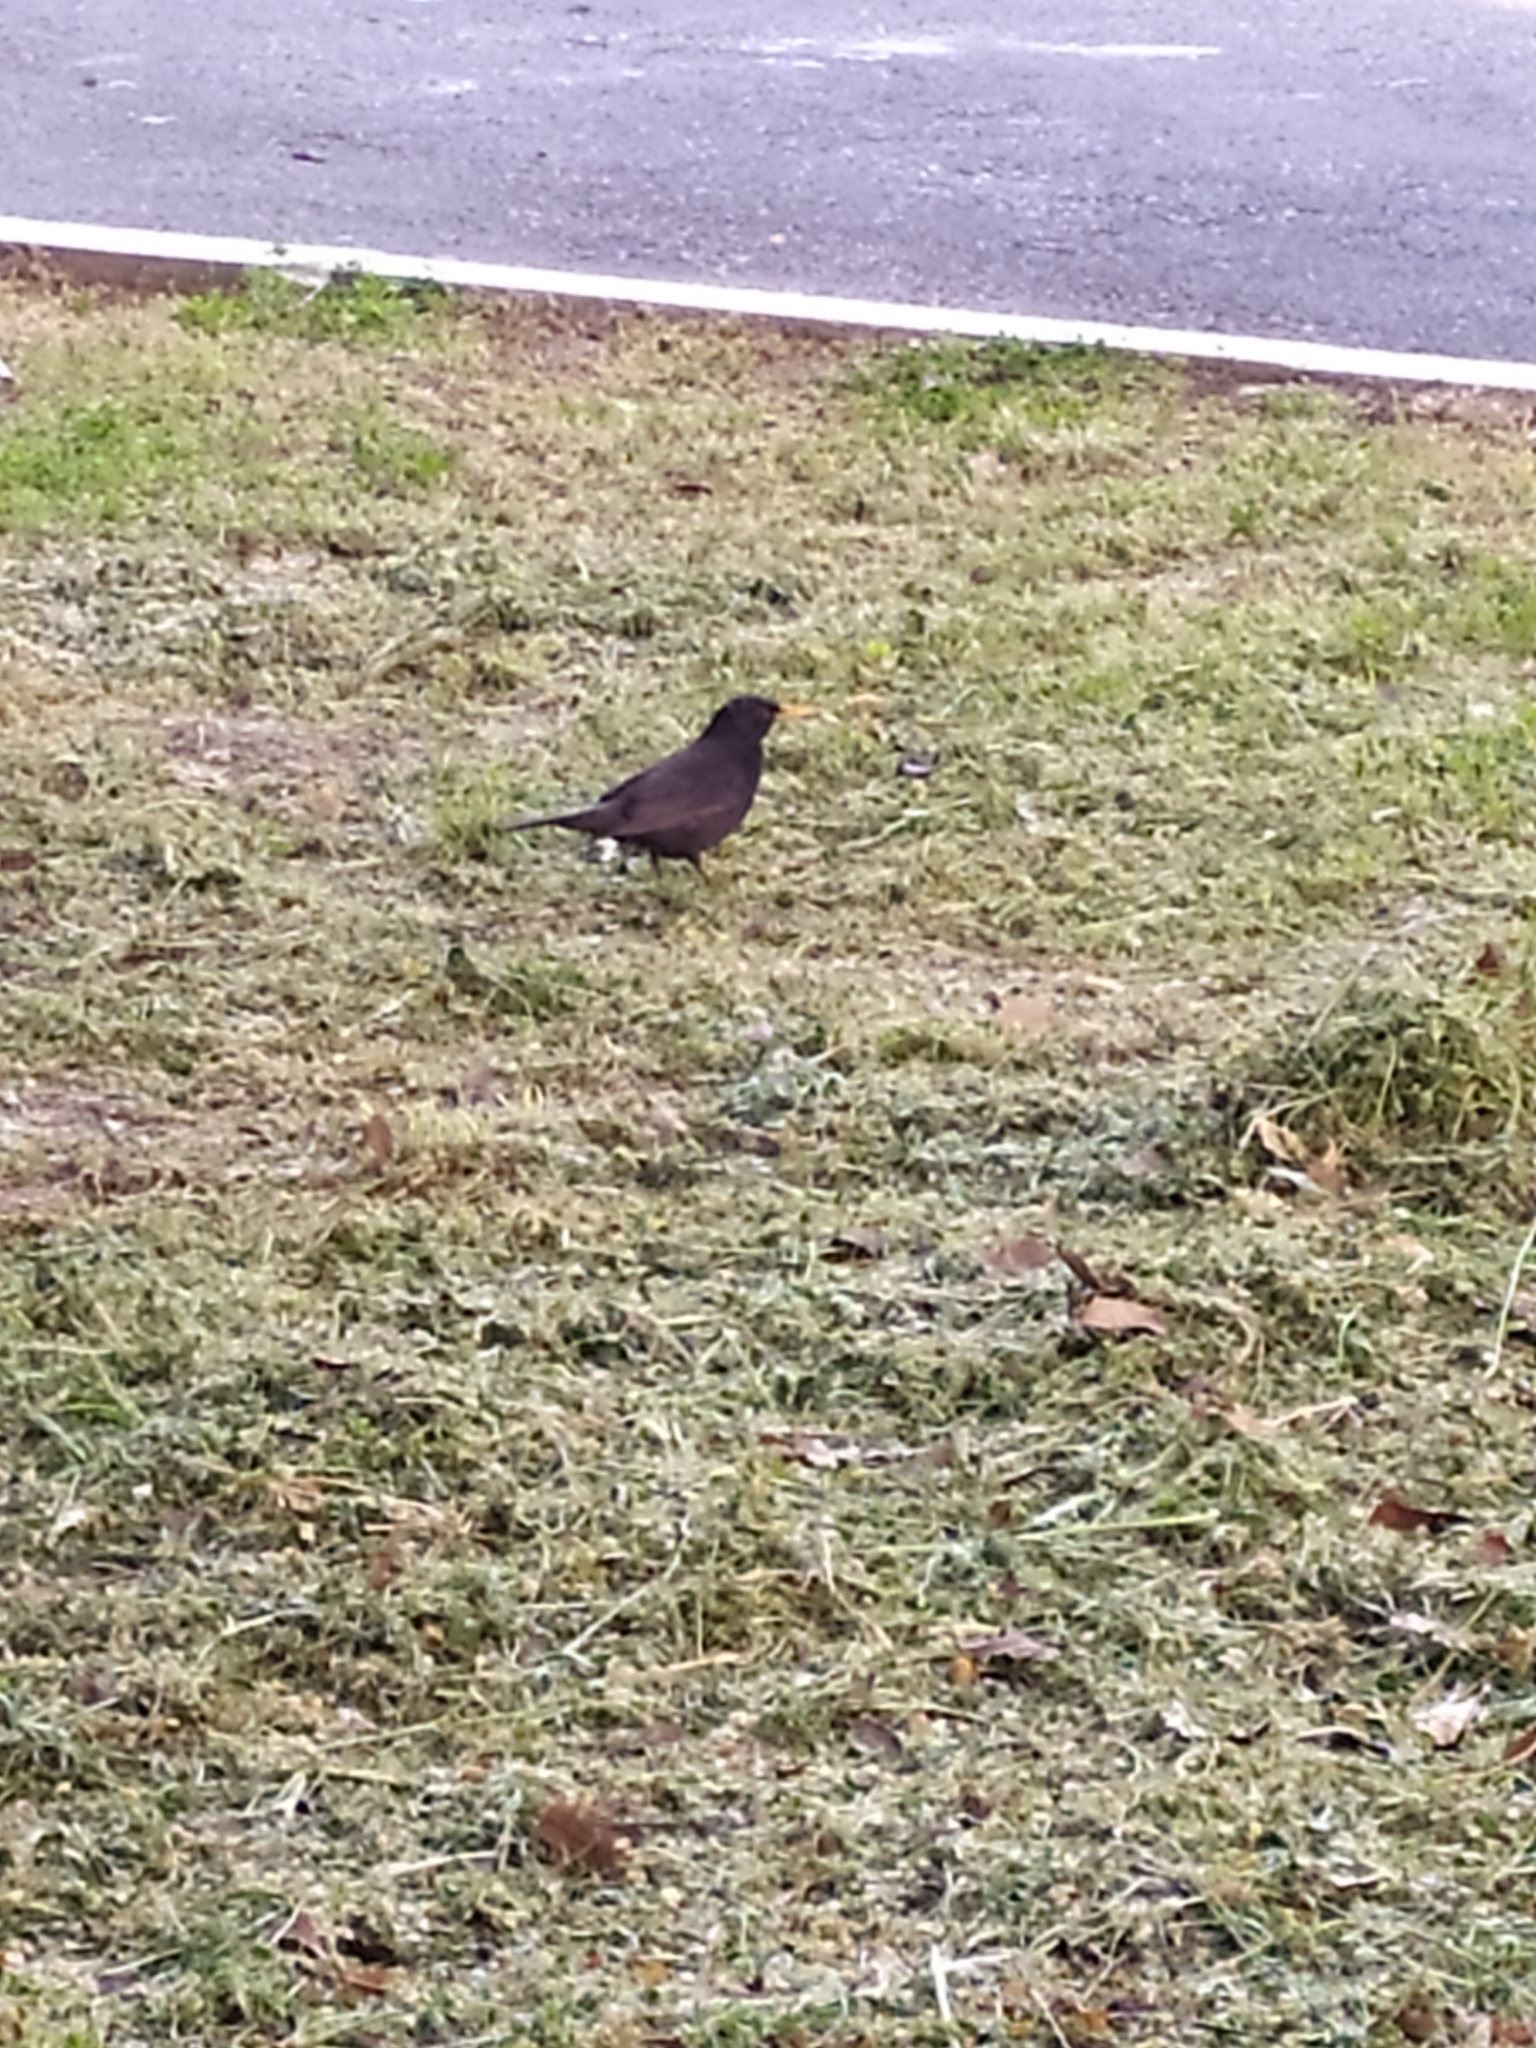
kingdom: Animalia
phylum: Chordata
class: Aves
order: Passeriformes
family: Turdidae
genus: Turdus
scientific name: Turdus merula
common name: Common blackbird
